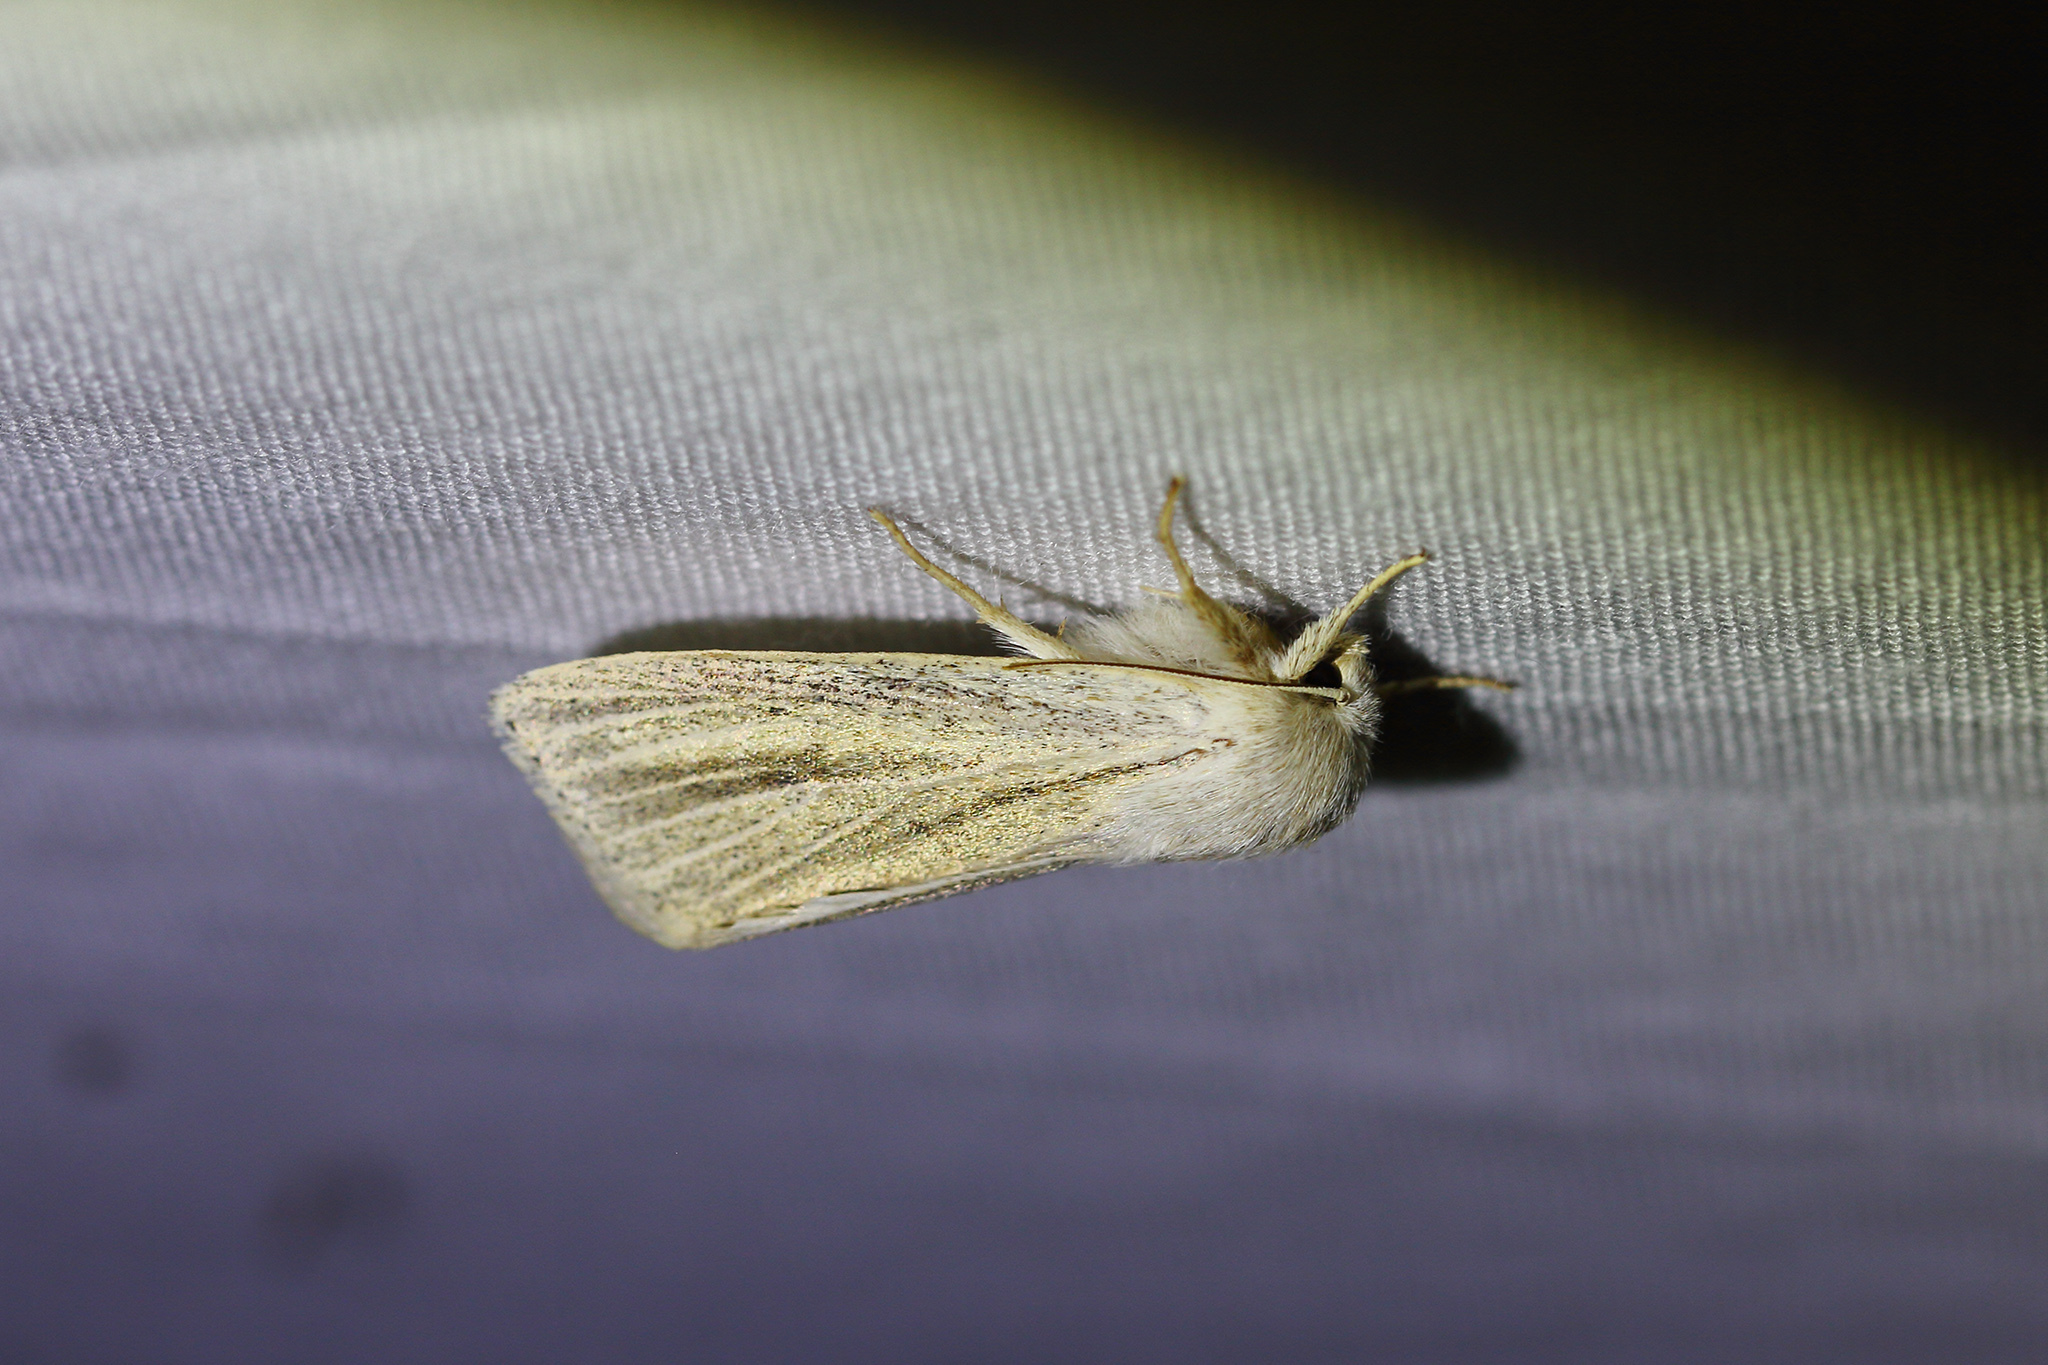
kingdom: Animalia
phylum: Arthropoda
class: Insecta
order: Lepidoptera
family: Noctuidae
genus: Simyra
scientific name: Simyra albovenosa
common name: Reed dagger
